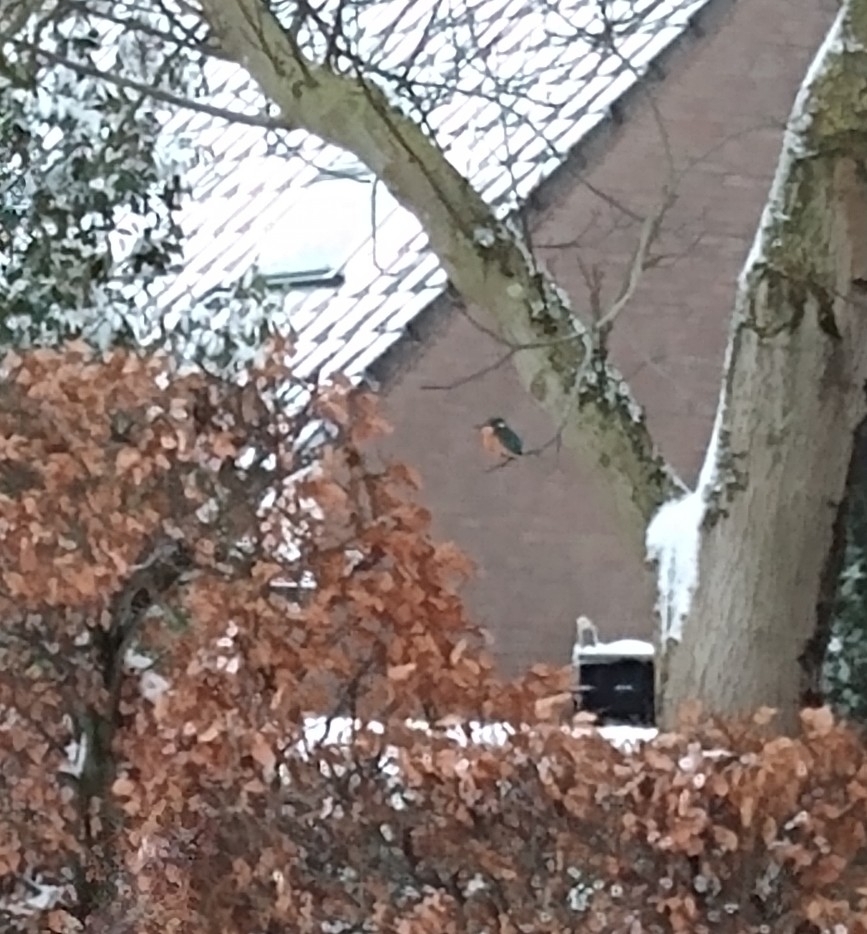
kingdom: Animalia
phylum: Chordata
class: Aves
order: Coraciiformes
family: Alcedinidae
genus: Alcedo
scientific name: Alcedo atthis
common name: Common kingfisher
